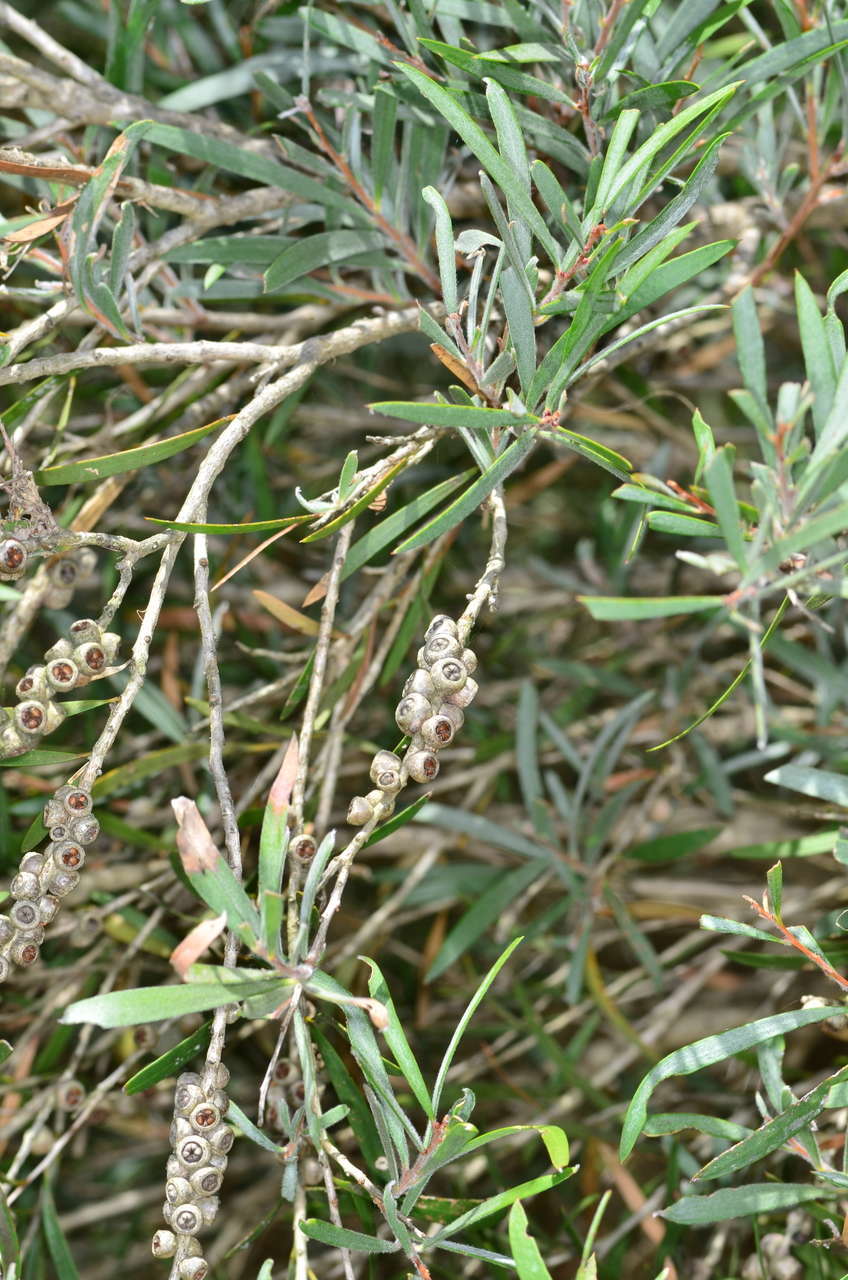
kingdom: Plantae
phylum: Tracheophyta
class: Magnoliopsida
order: Myrtales
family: Myrtaceae
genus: Callistemon
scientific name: Callistemon paludosus
